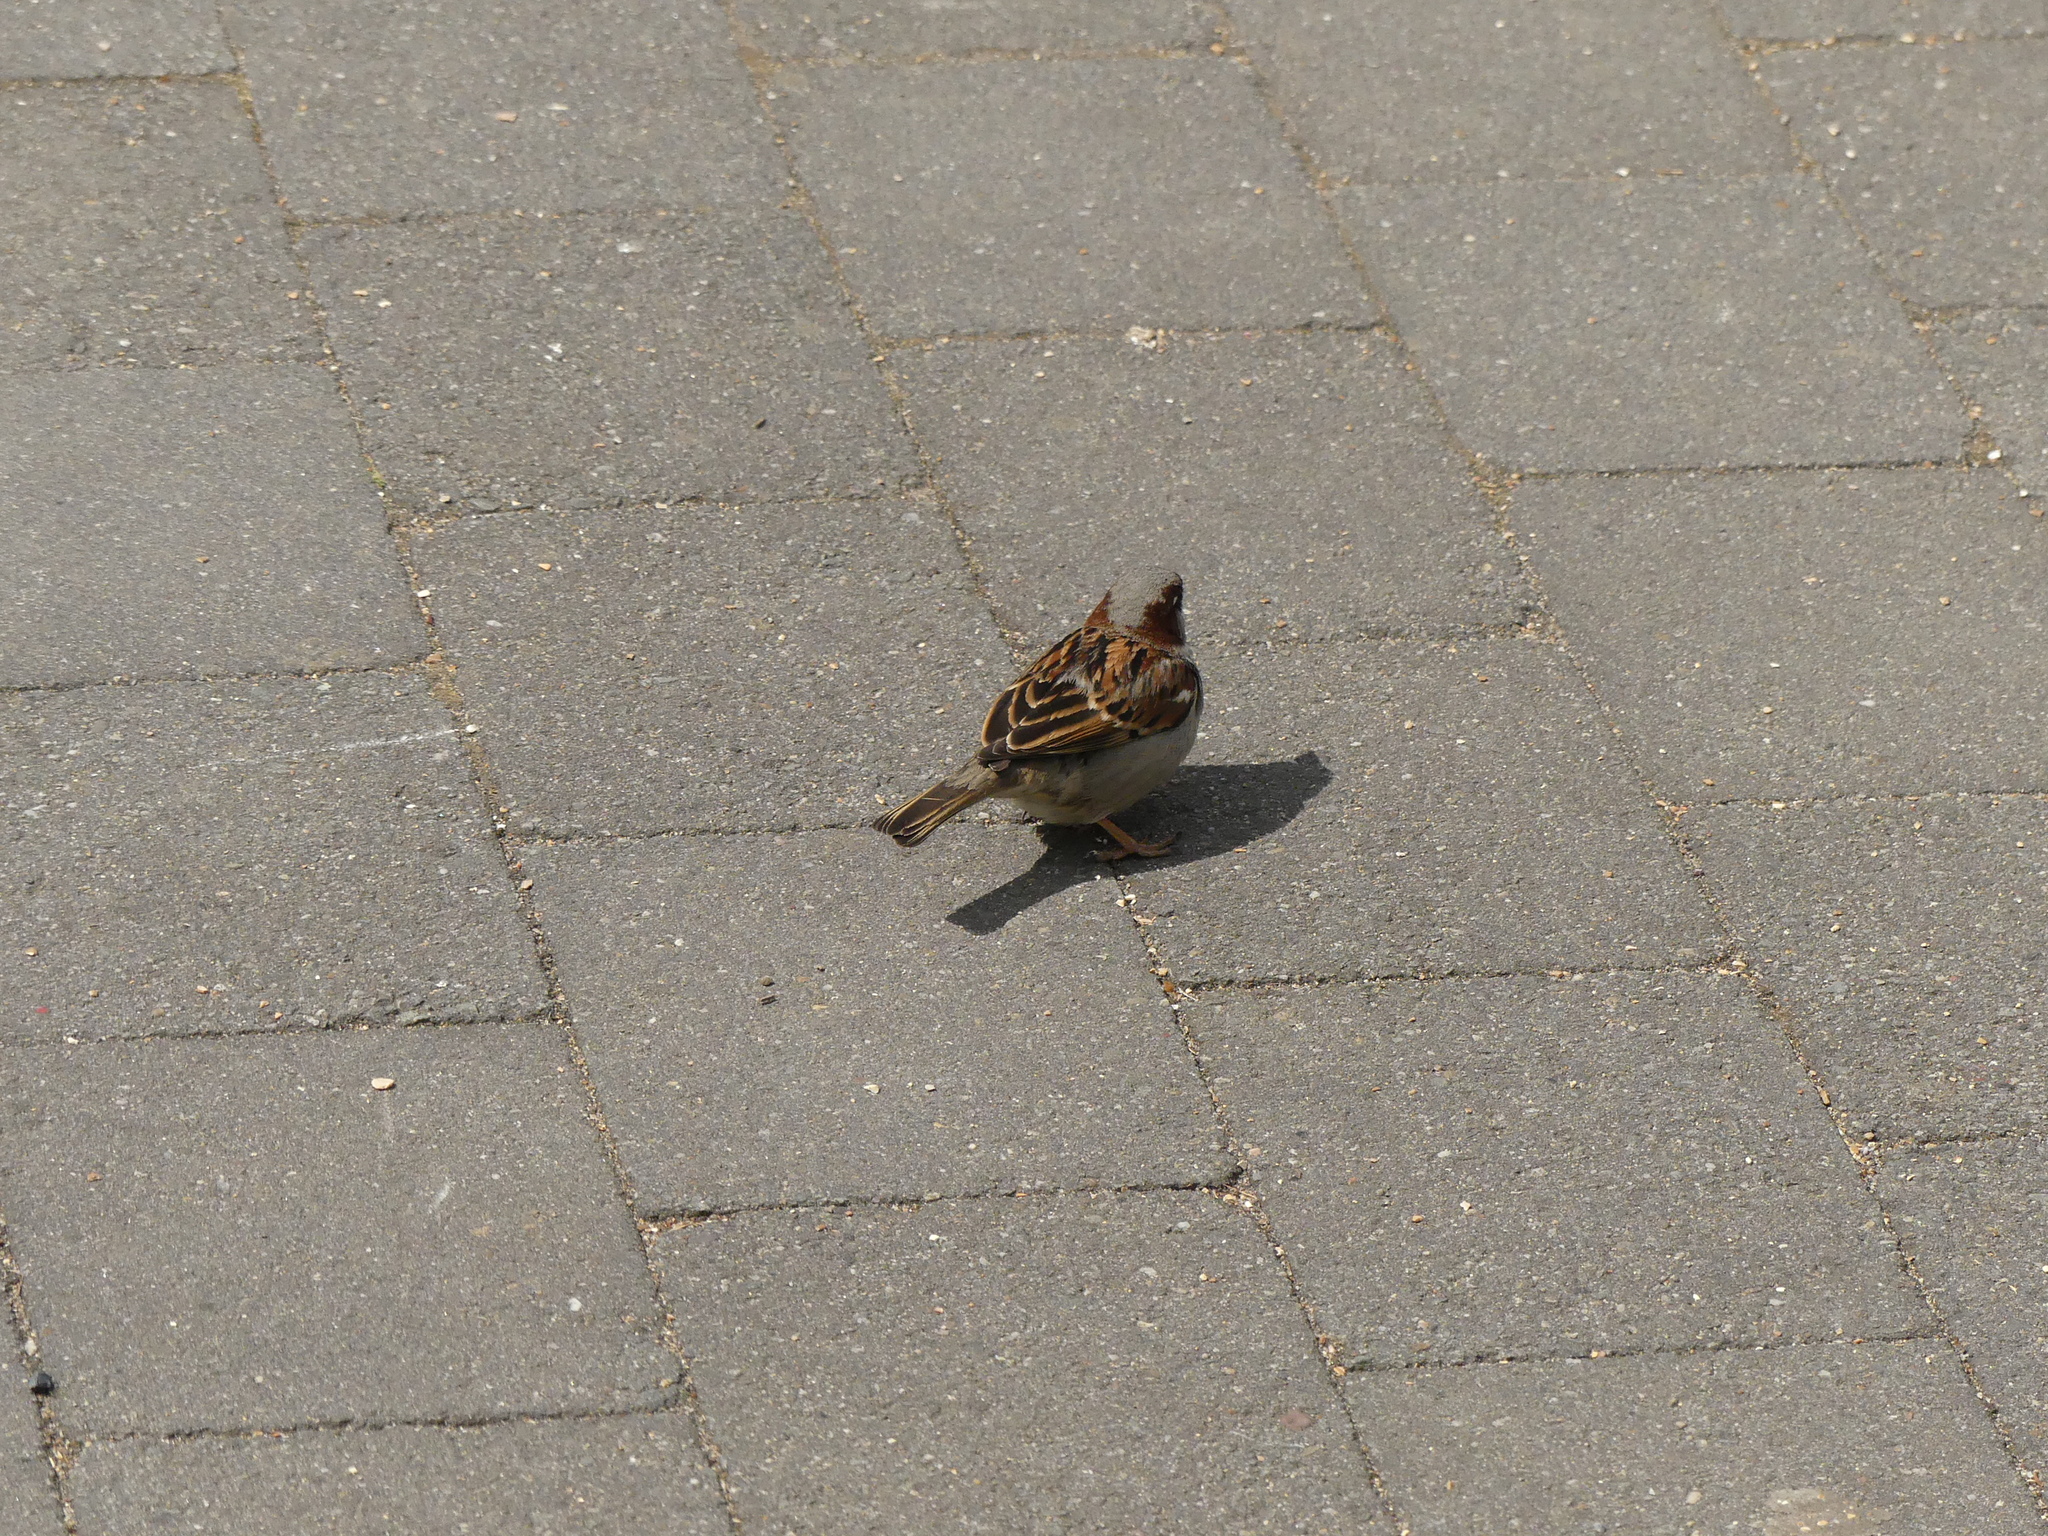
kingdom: Animalia
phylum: Chordata
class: Aves
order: Passeriformes
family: Passeridae
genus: Passer
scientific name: Passer domesticus
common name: House sparrow
